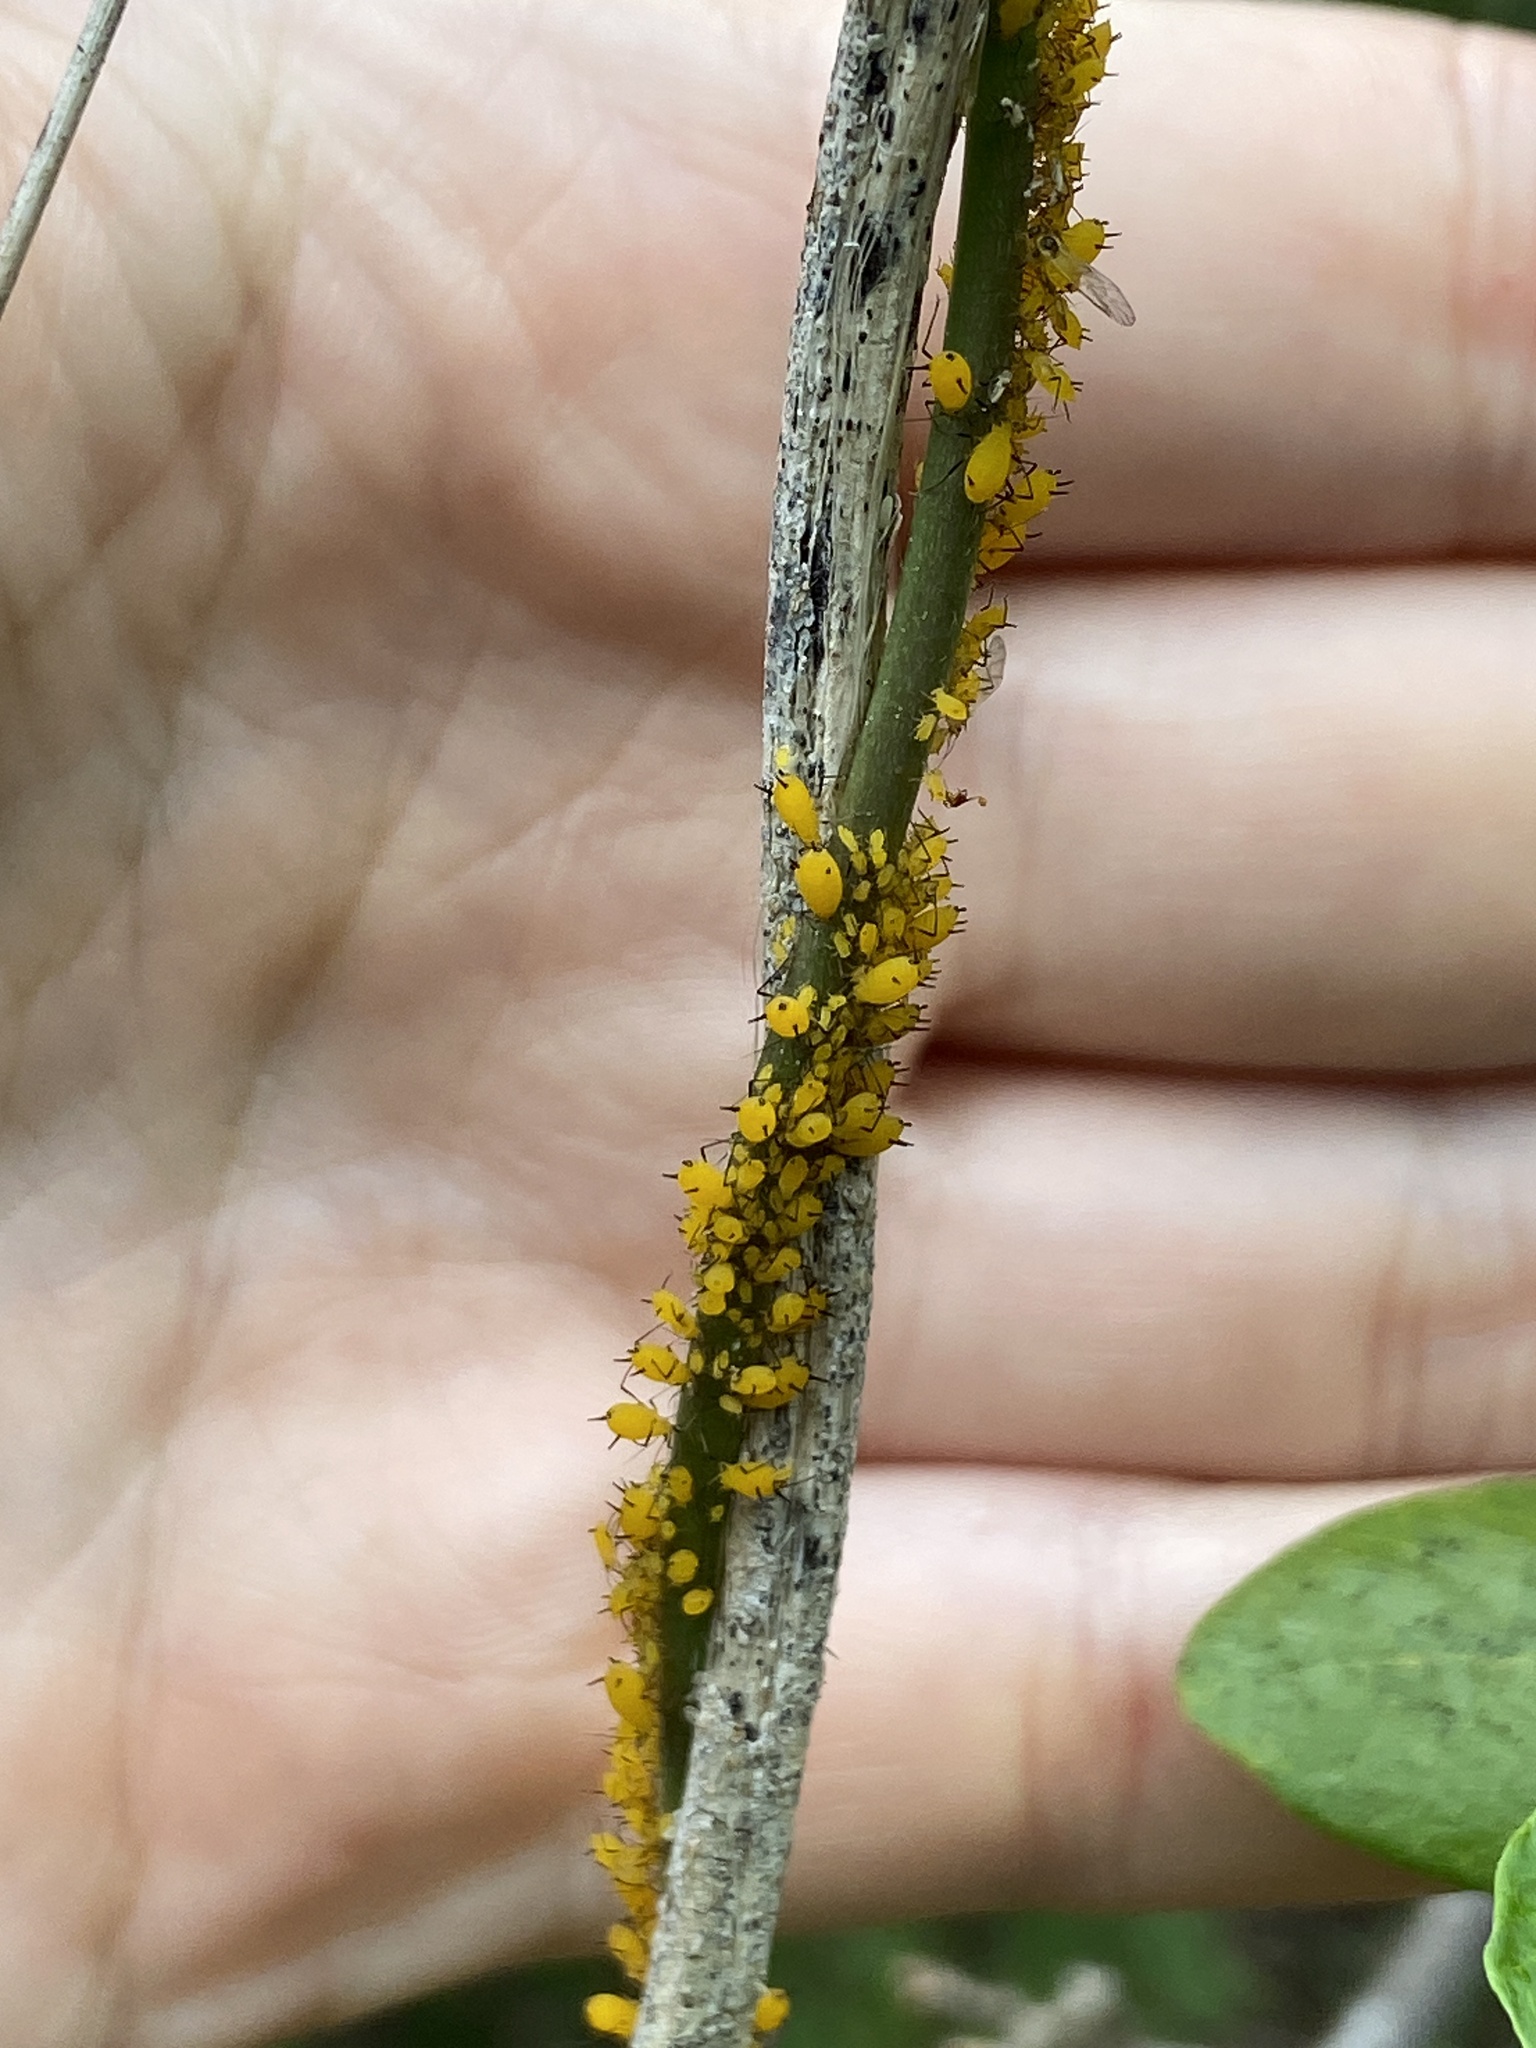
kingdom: Animalia
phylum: Arthropoda
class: Insecta
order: Hemiptera
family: Aphididae
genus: Aphis
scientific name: Aphis nerii
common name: Oleander aphid
